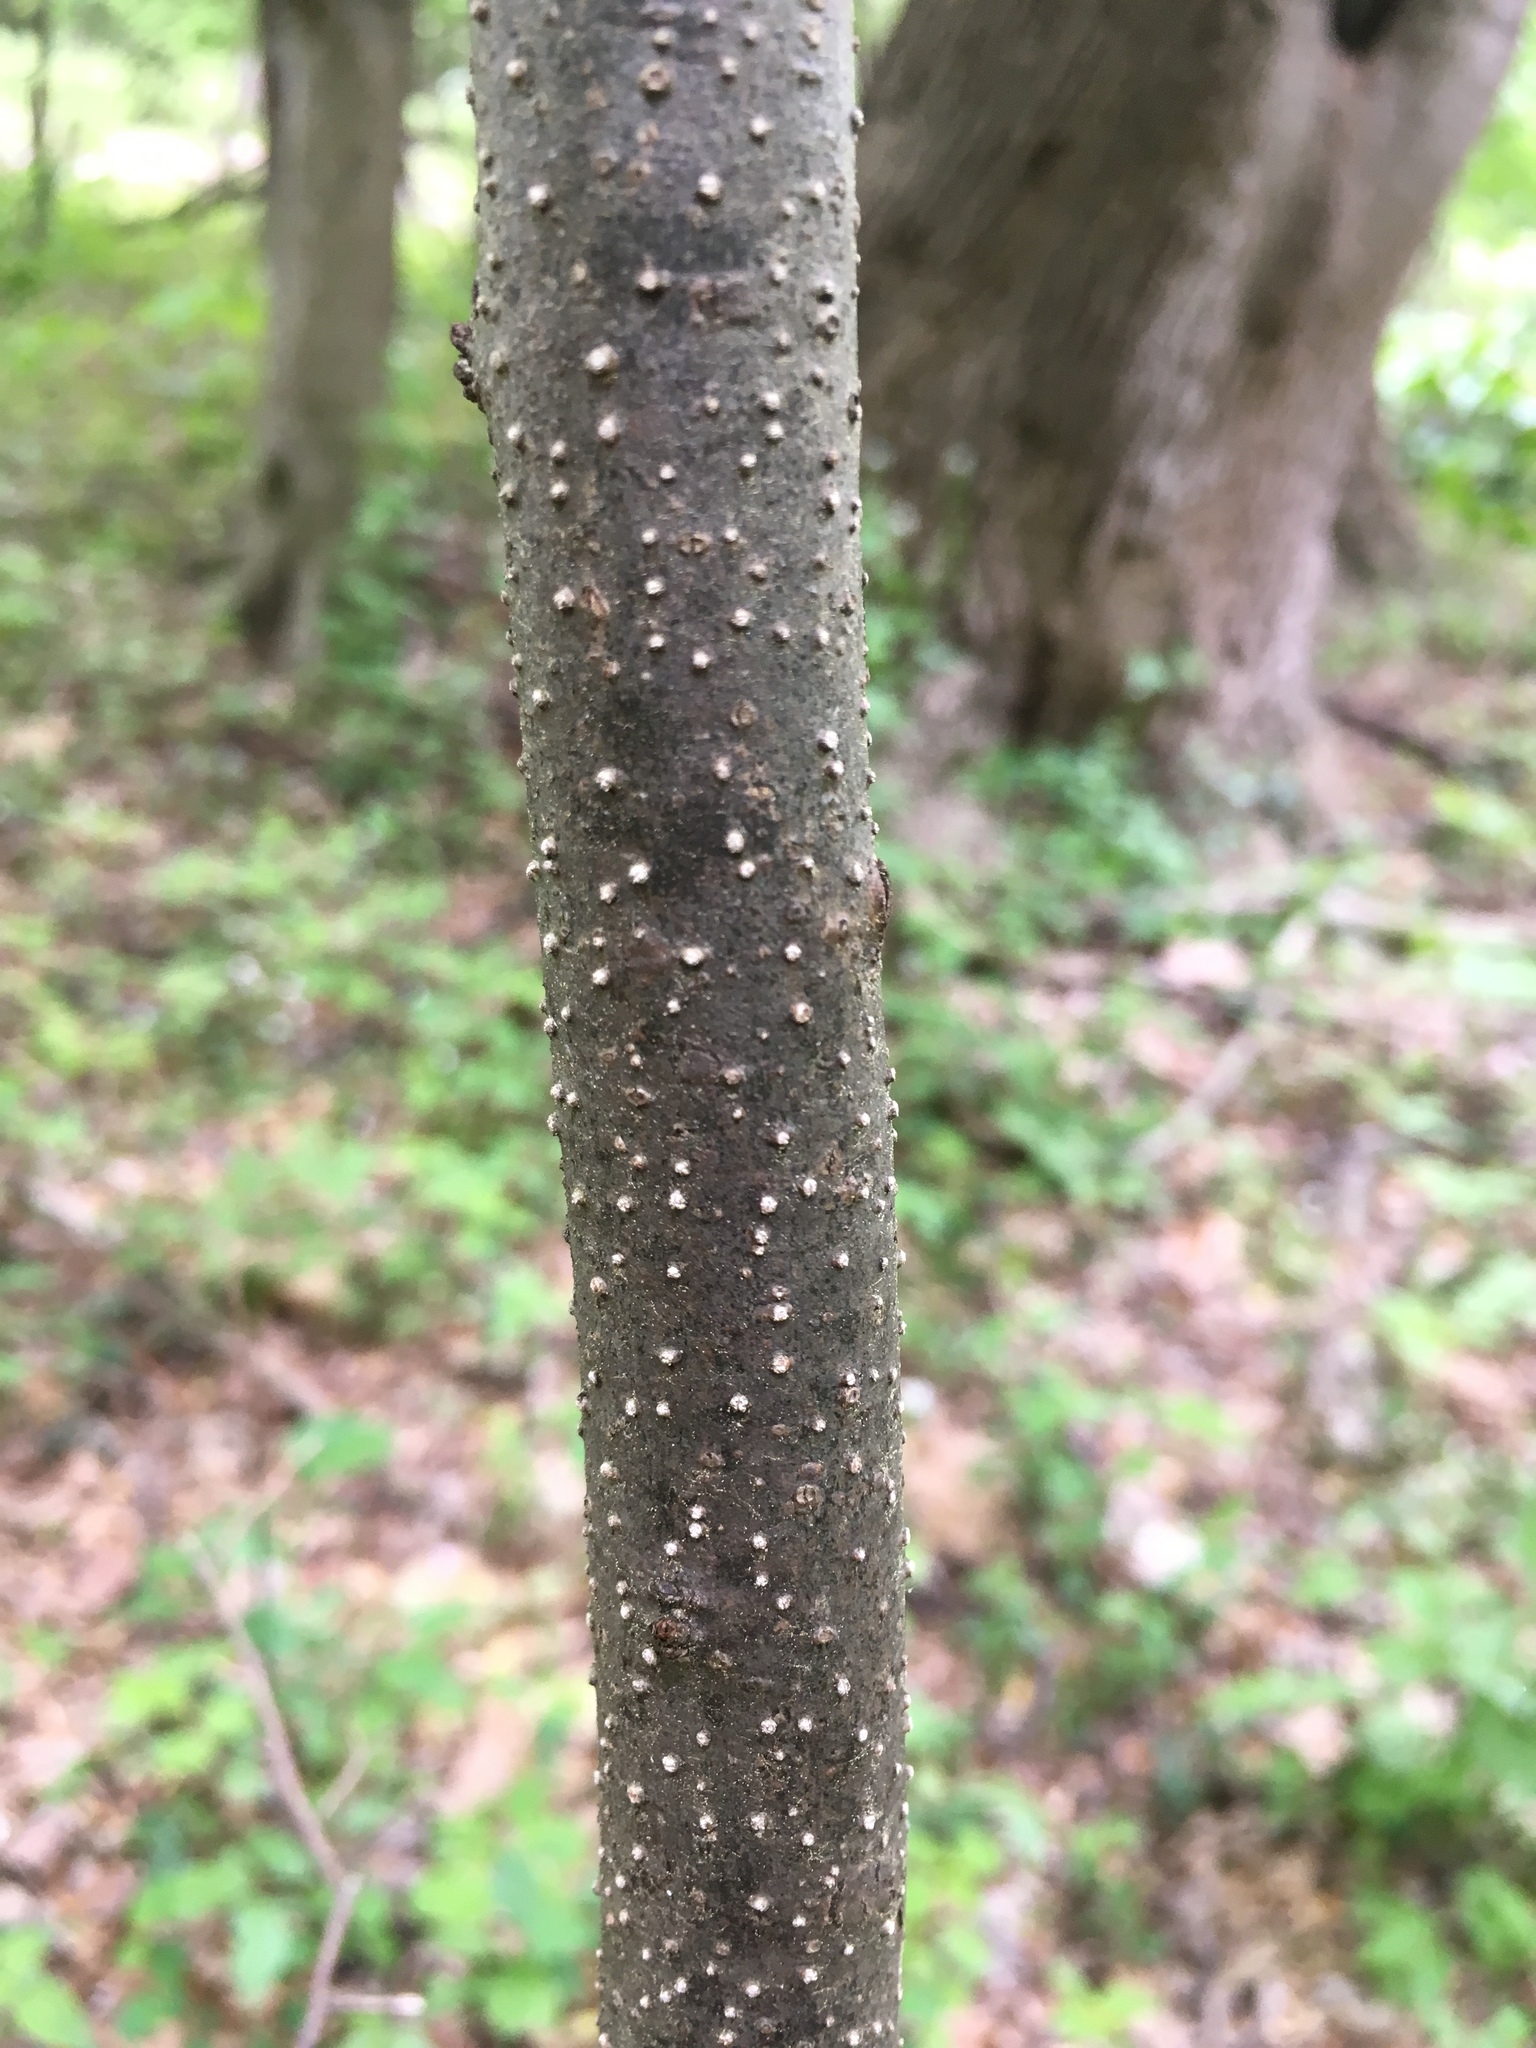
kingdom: Plantae
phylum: Tracheophyta
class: Magnoliopsida
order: Laurales
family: Lauraceae
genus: Lindera
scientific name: Lindera benzoin
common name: Spicebush
